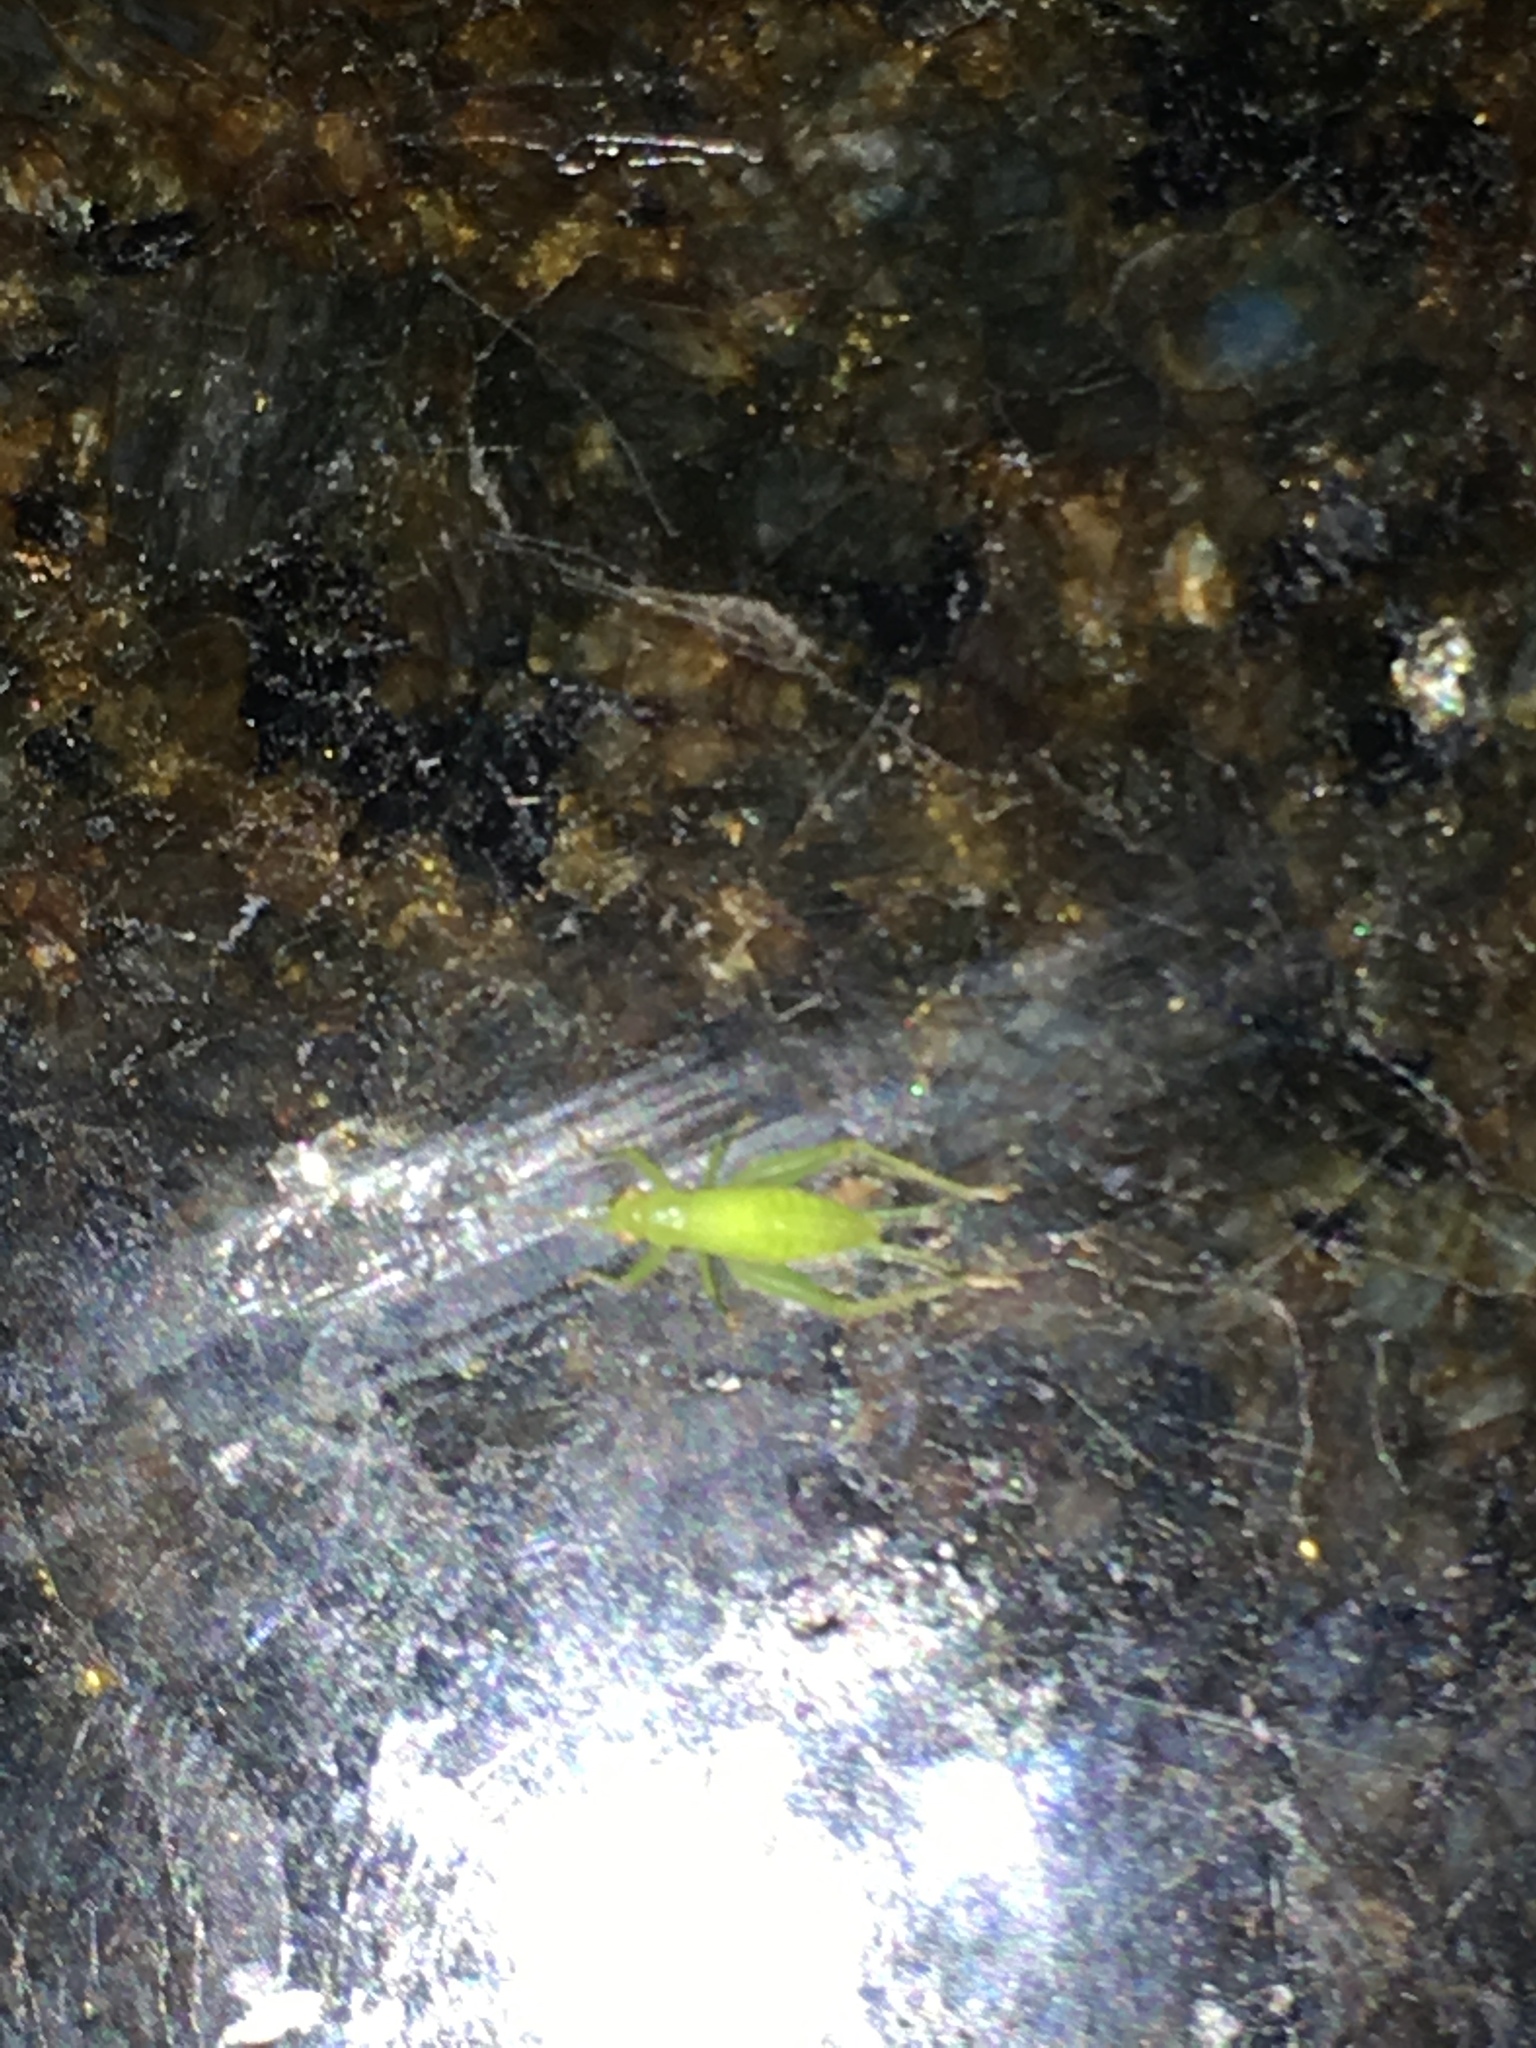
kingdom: Animalia
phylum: Arthropoda
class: Insecta
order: Orthoptera
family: Trigonidiidae
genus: Cyrtoxipha
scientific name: Cyrtoxipha columbiana
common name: Columbian trig
